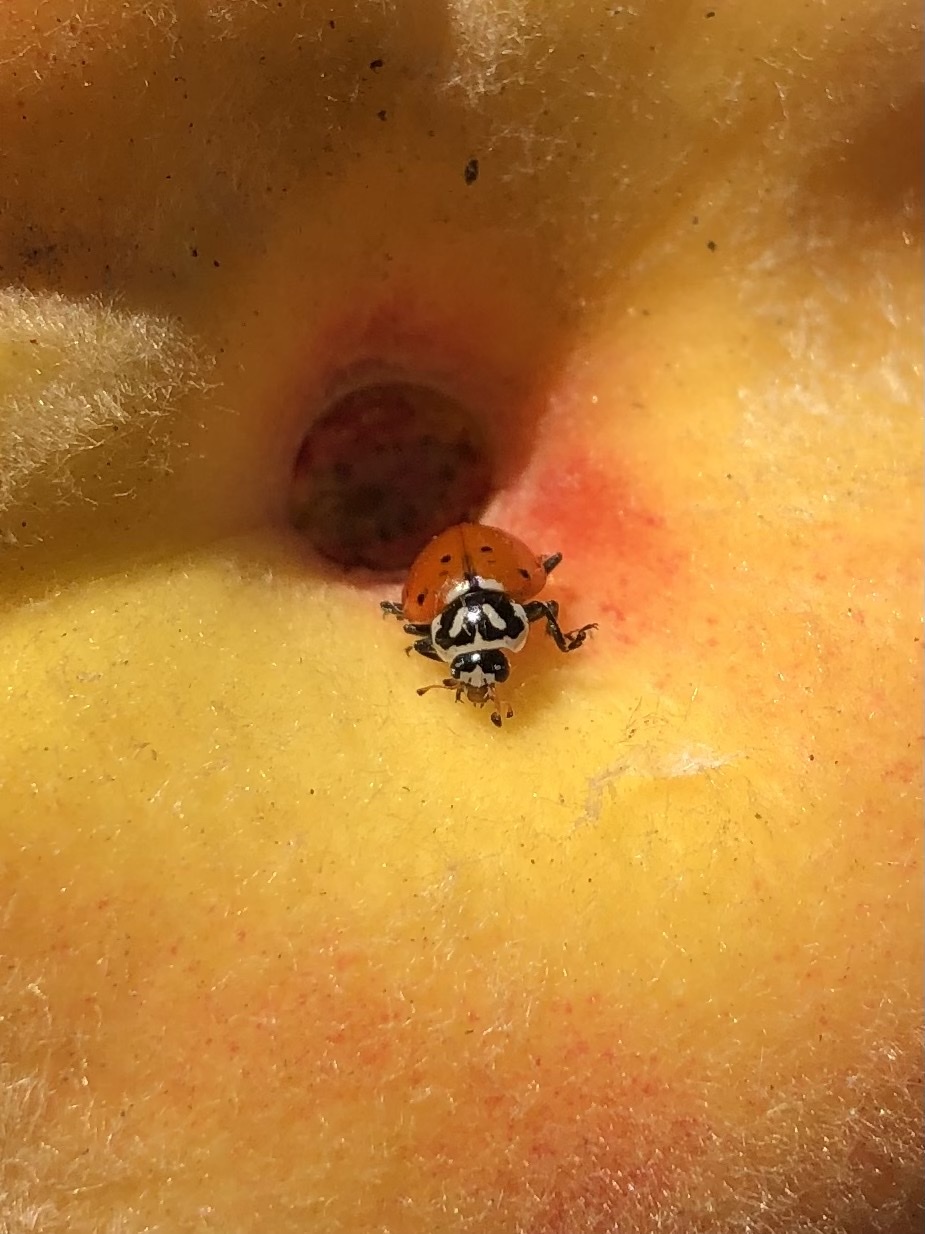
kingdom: Animalia
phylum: Arthropoda
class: Insecta
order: Coleoptera
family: Coccinellidae
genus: Hippodamia
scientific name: Hippodamia convergens
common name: Convergent lady beetle
